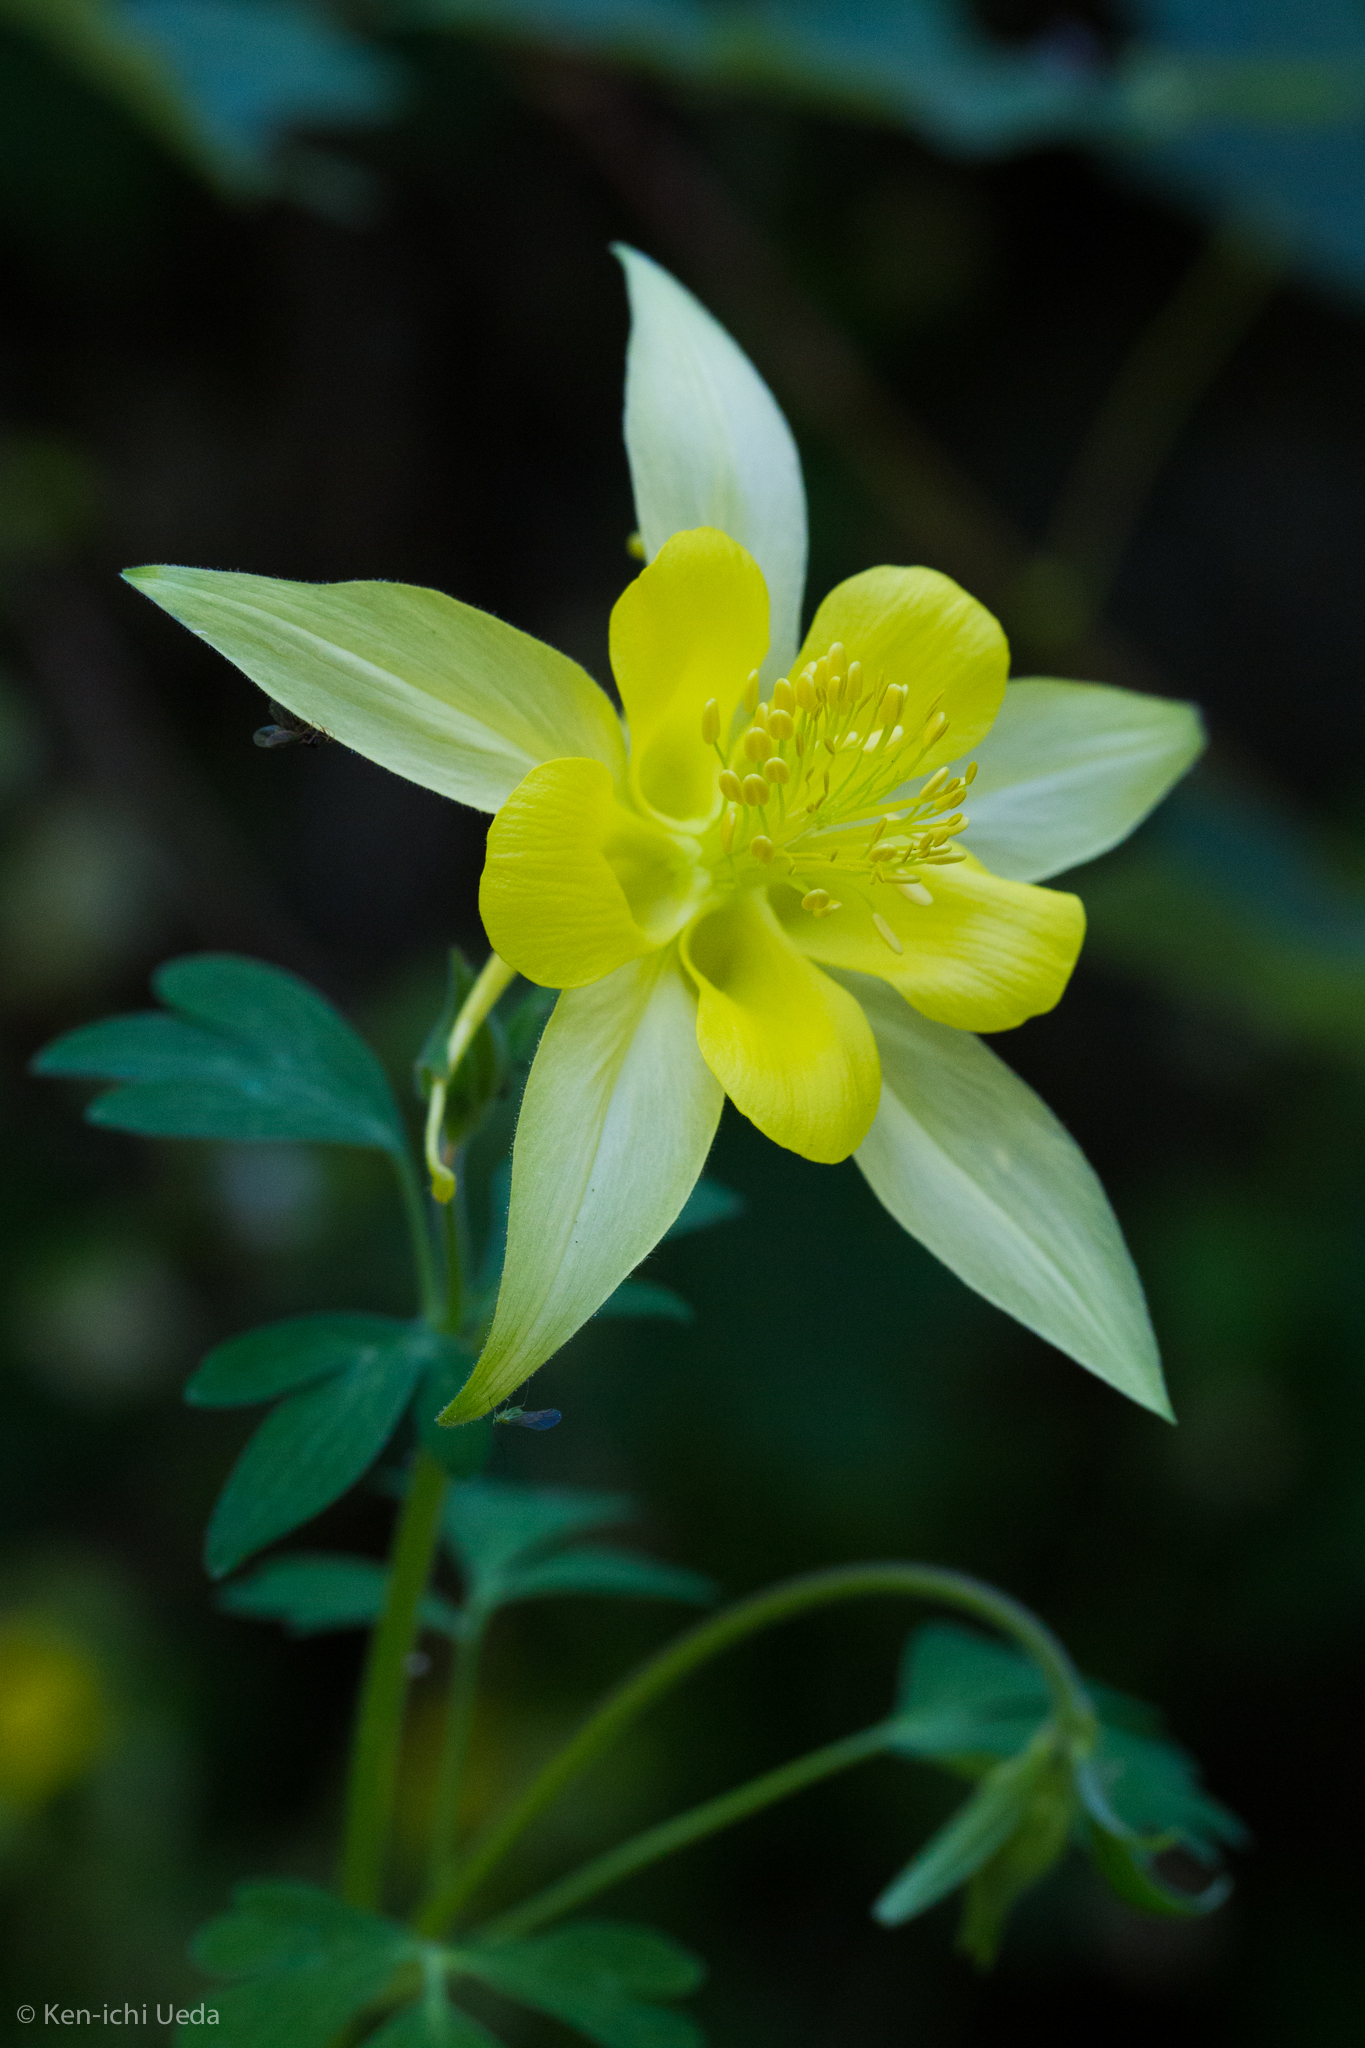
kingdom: Plantae
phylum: Tracheophyta
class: Magnoliopsida
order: Ranunculales
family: Ranunculaceae
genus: Aquilegia
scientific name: Aquilegia chrysantha
